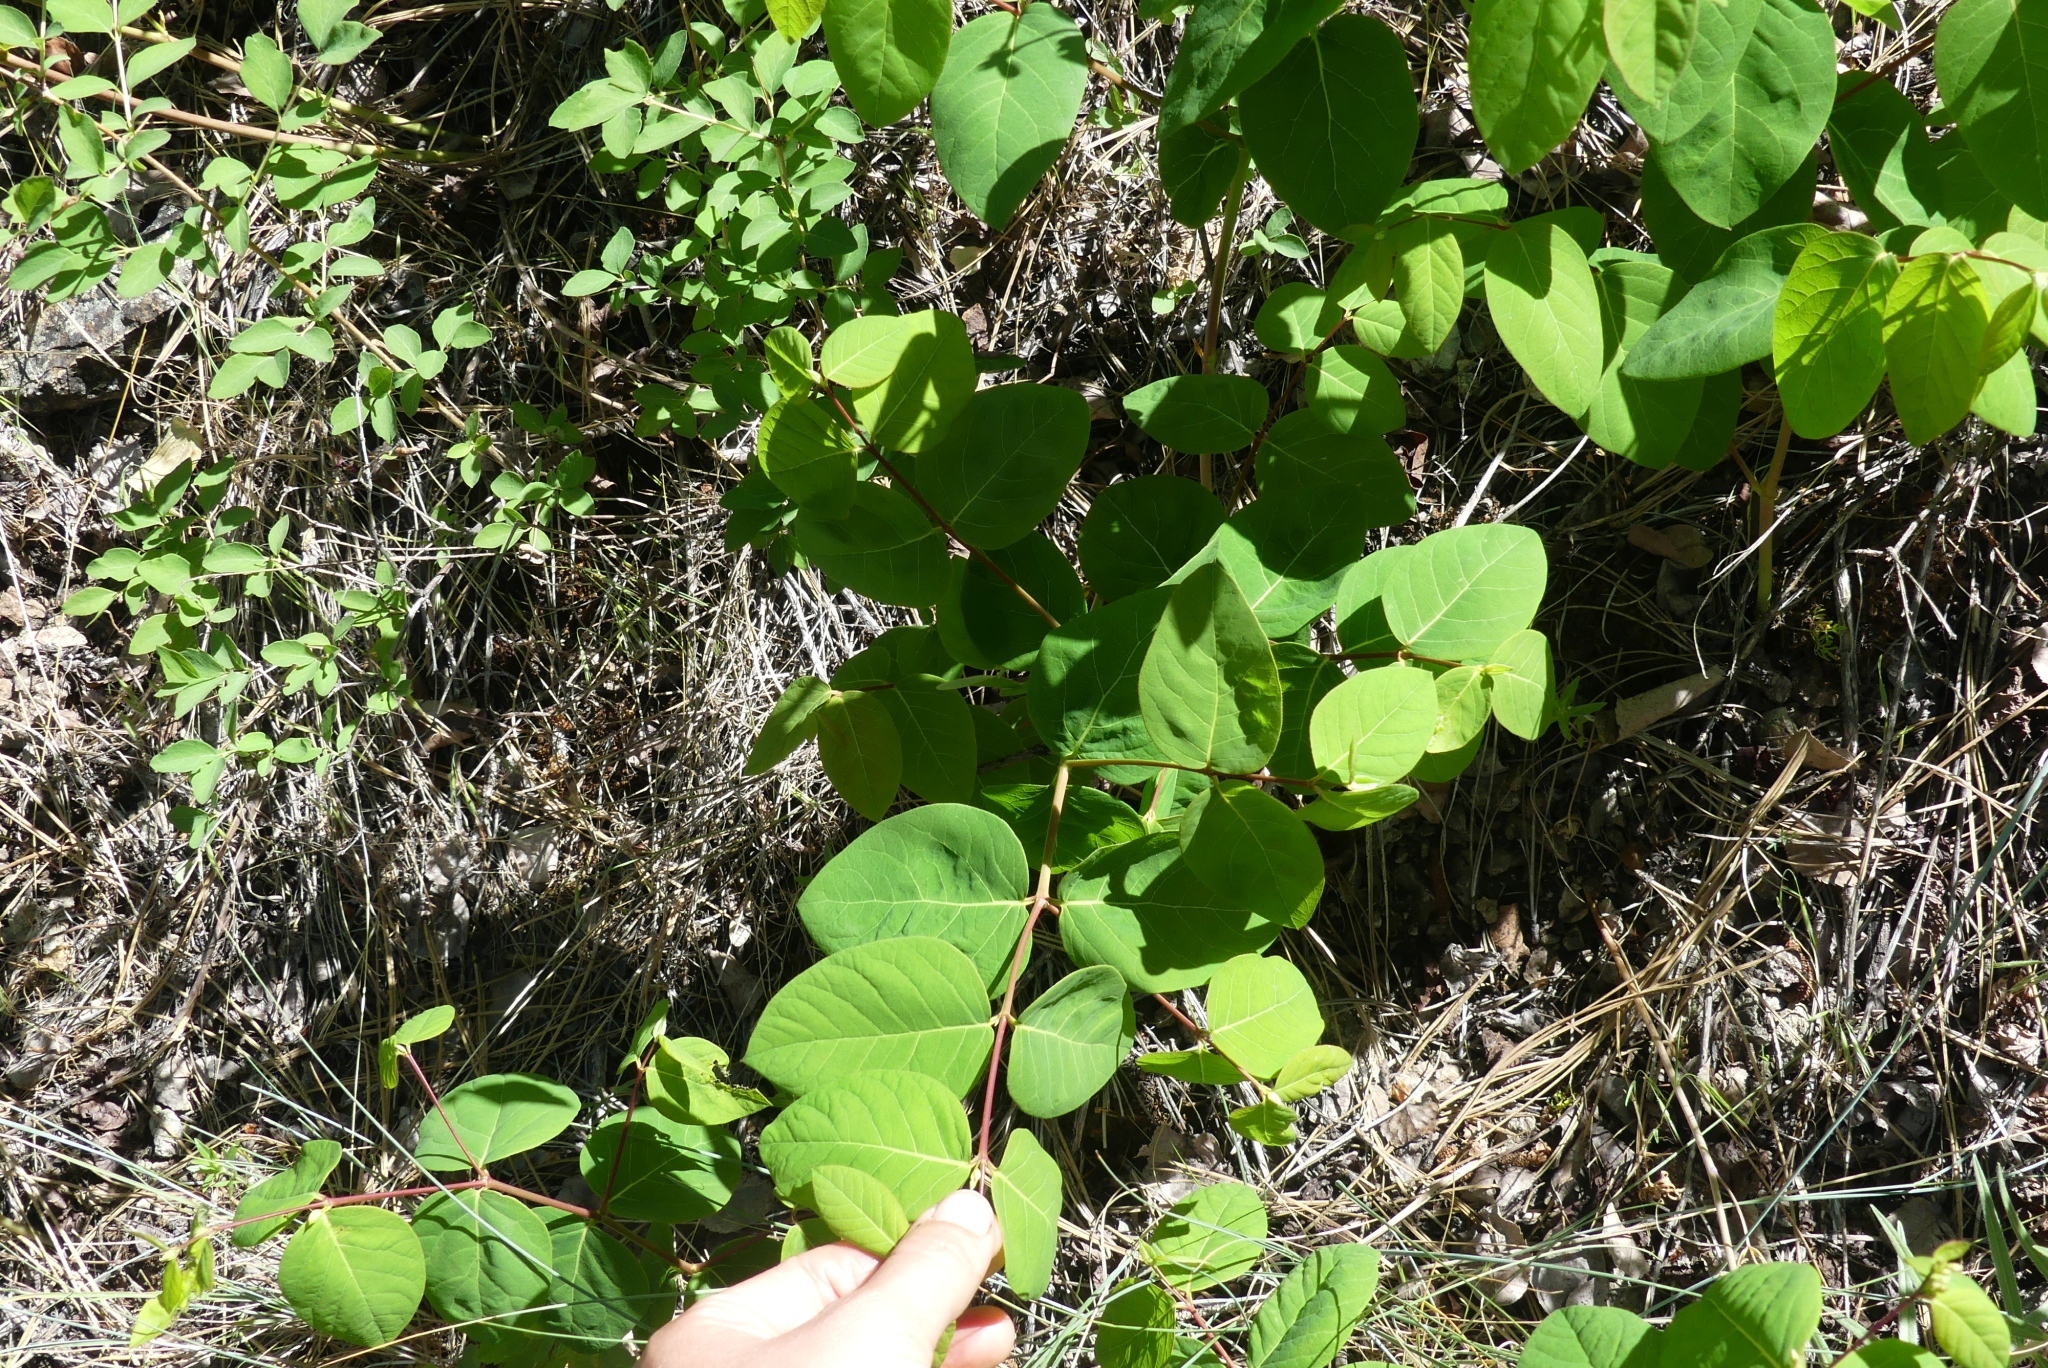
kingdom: Plantae
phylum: Tracheophyta
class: Magnoliopsida
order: Gentianales
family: Apocynaceae
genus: Apocynum
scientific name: Apocynum androsaemifolium
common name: Spreading dogbane
